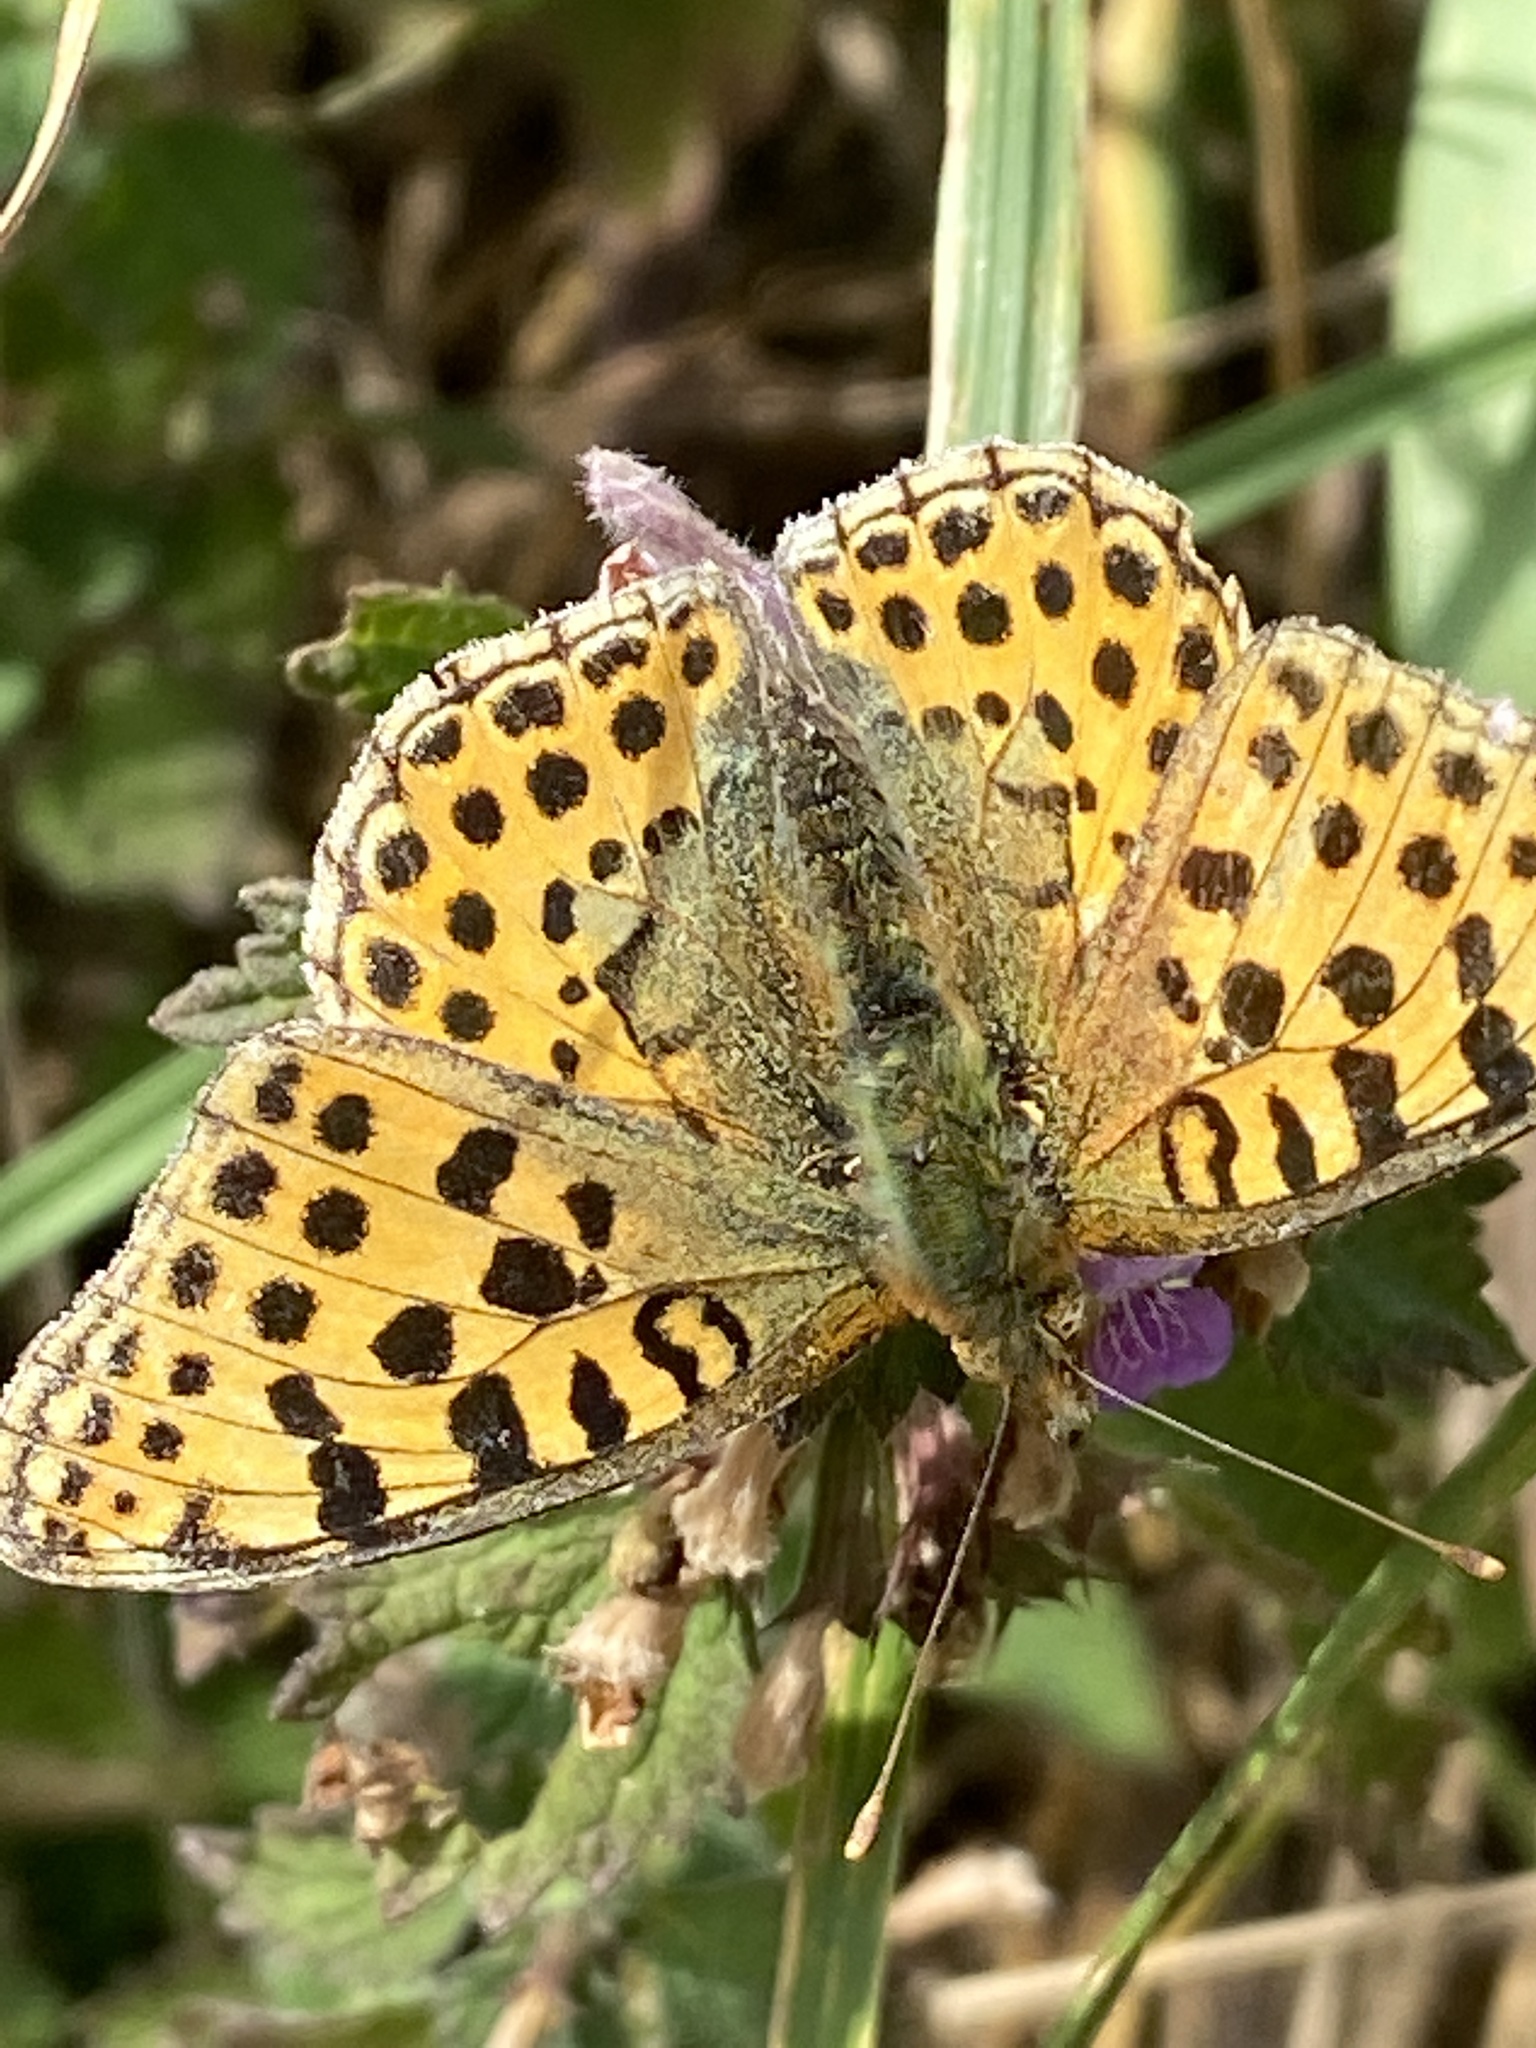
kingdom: Animalia
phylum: Arthropoda
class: Insecta
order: Lepidoptera
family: Nymphalidae
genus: Issoria
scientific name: Issoria lathonia
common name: Queen of spain fritillary
